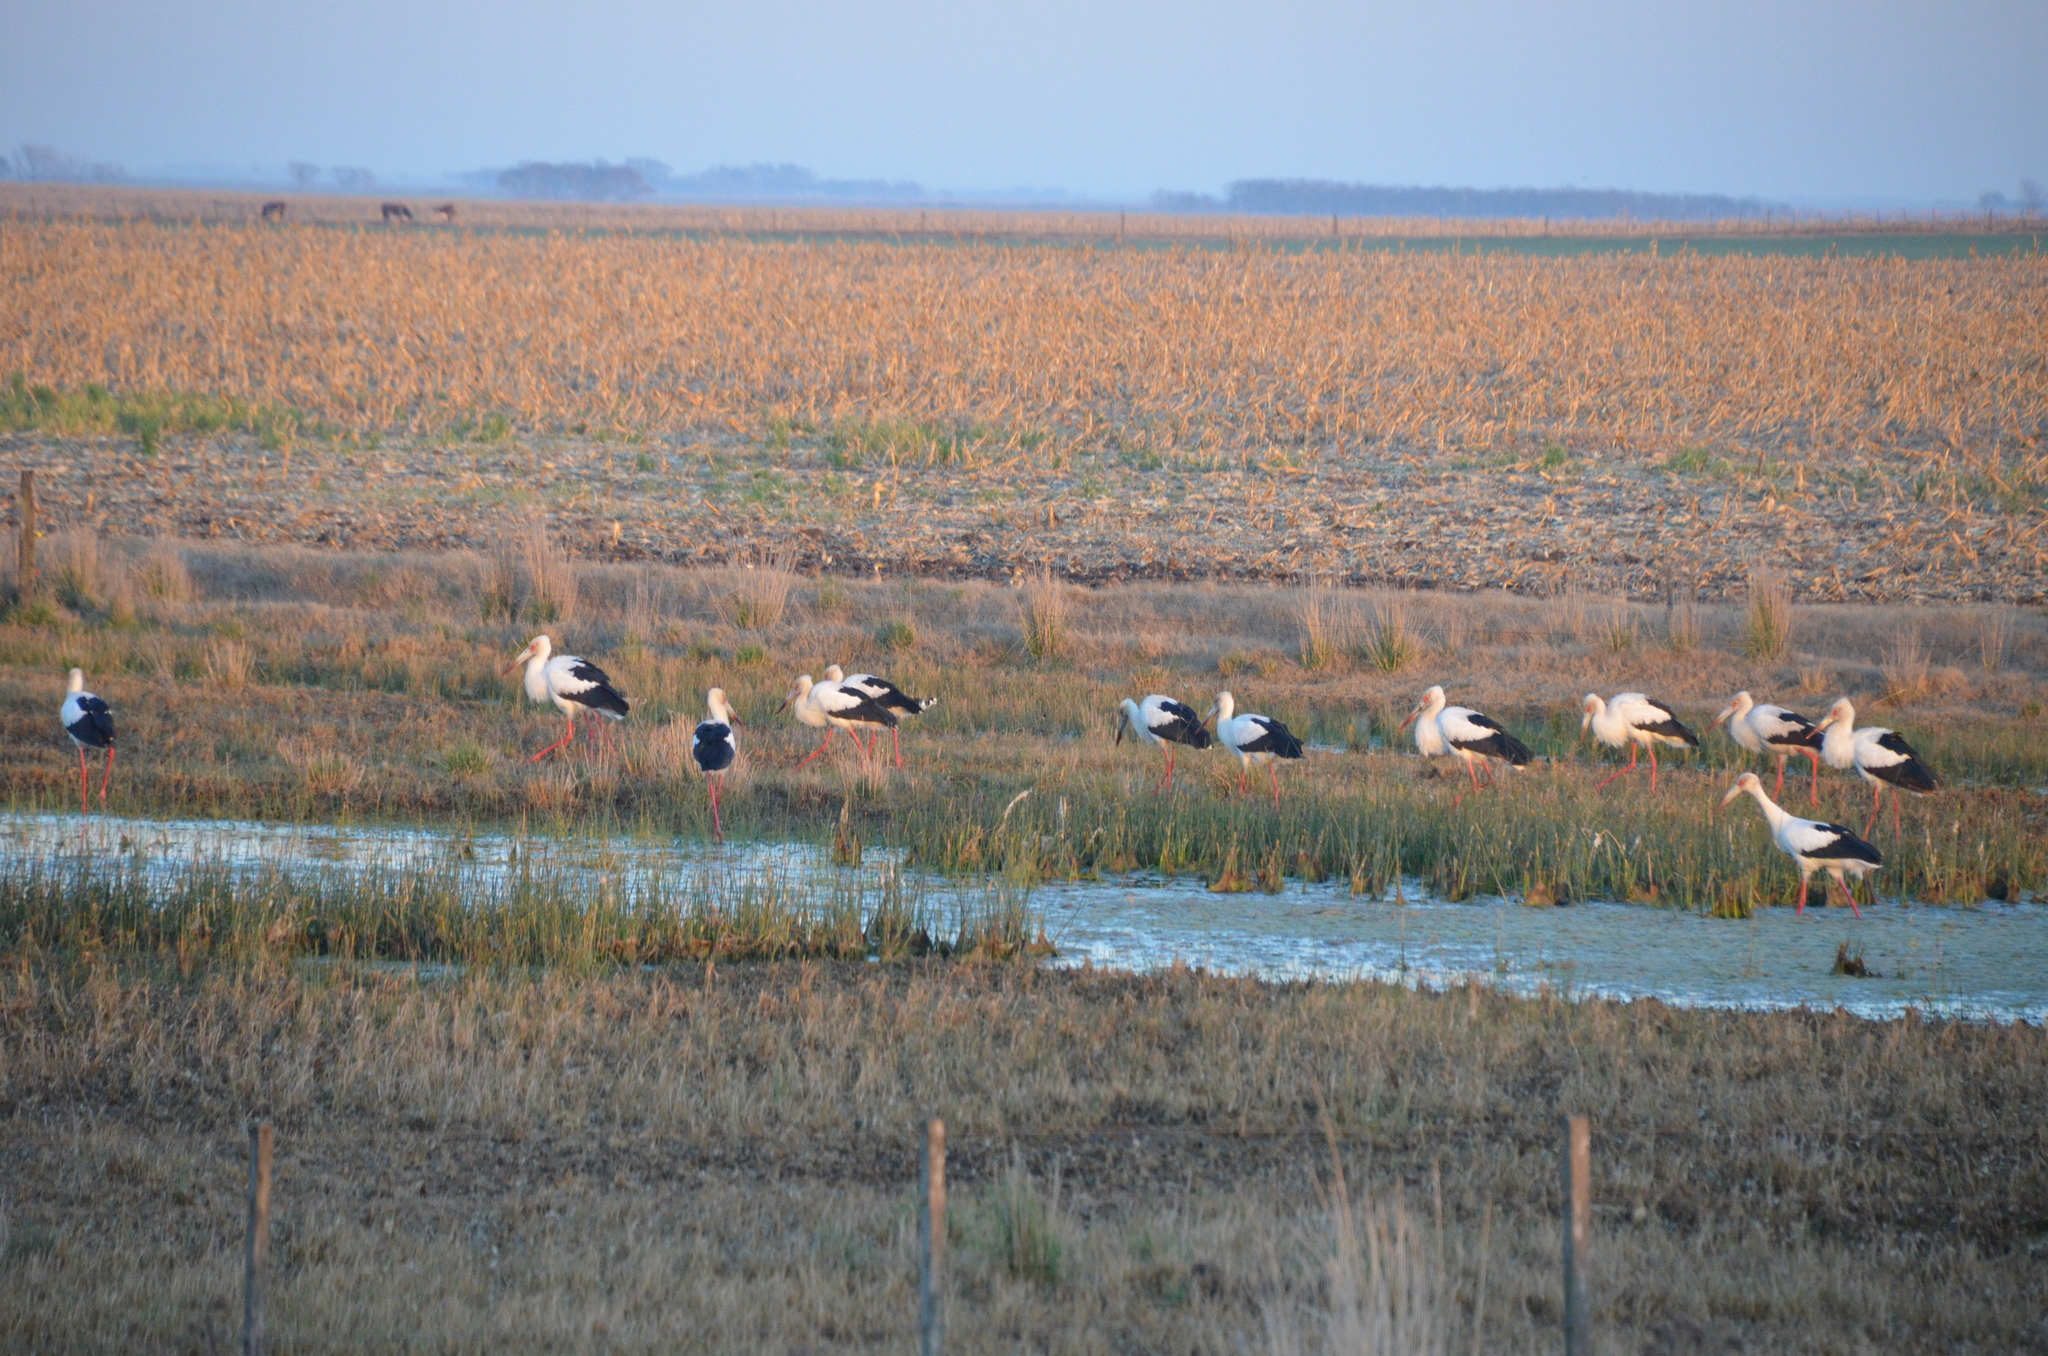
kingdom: Animalia
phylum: Chordata
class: Aves
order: Ciconiiformes
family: Ciconiidae
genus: Ciconia
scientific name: Ciconia maguari
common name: Maguari stork
